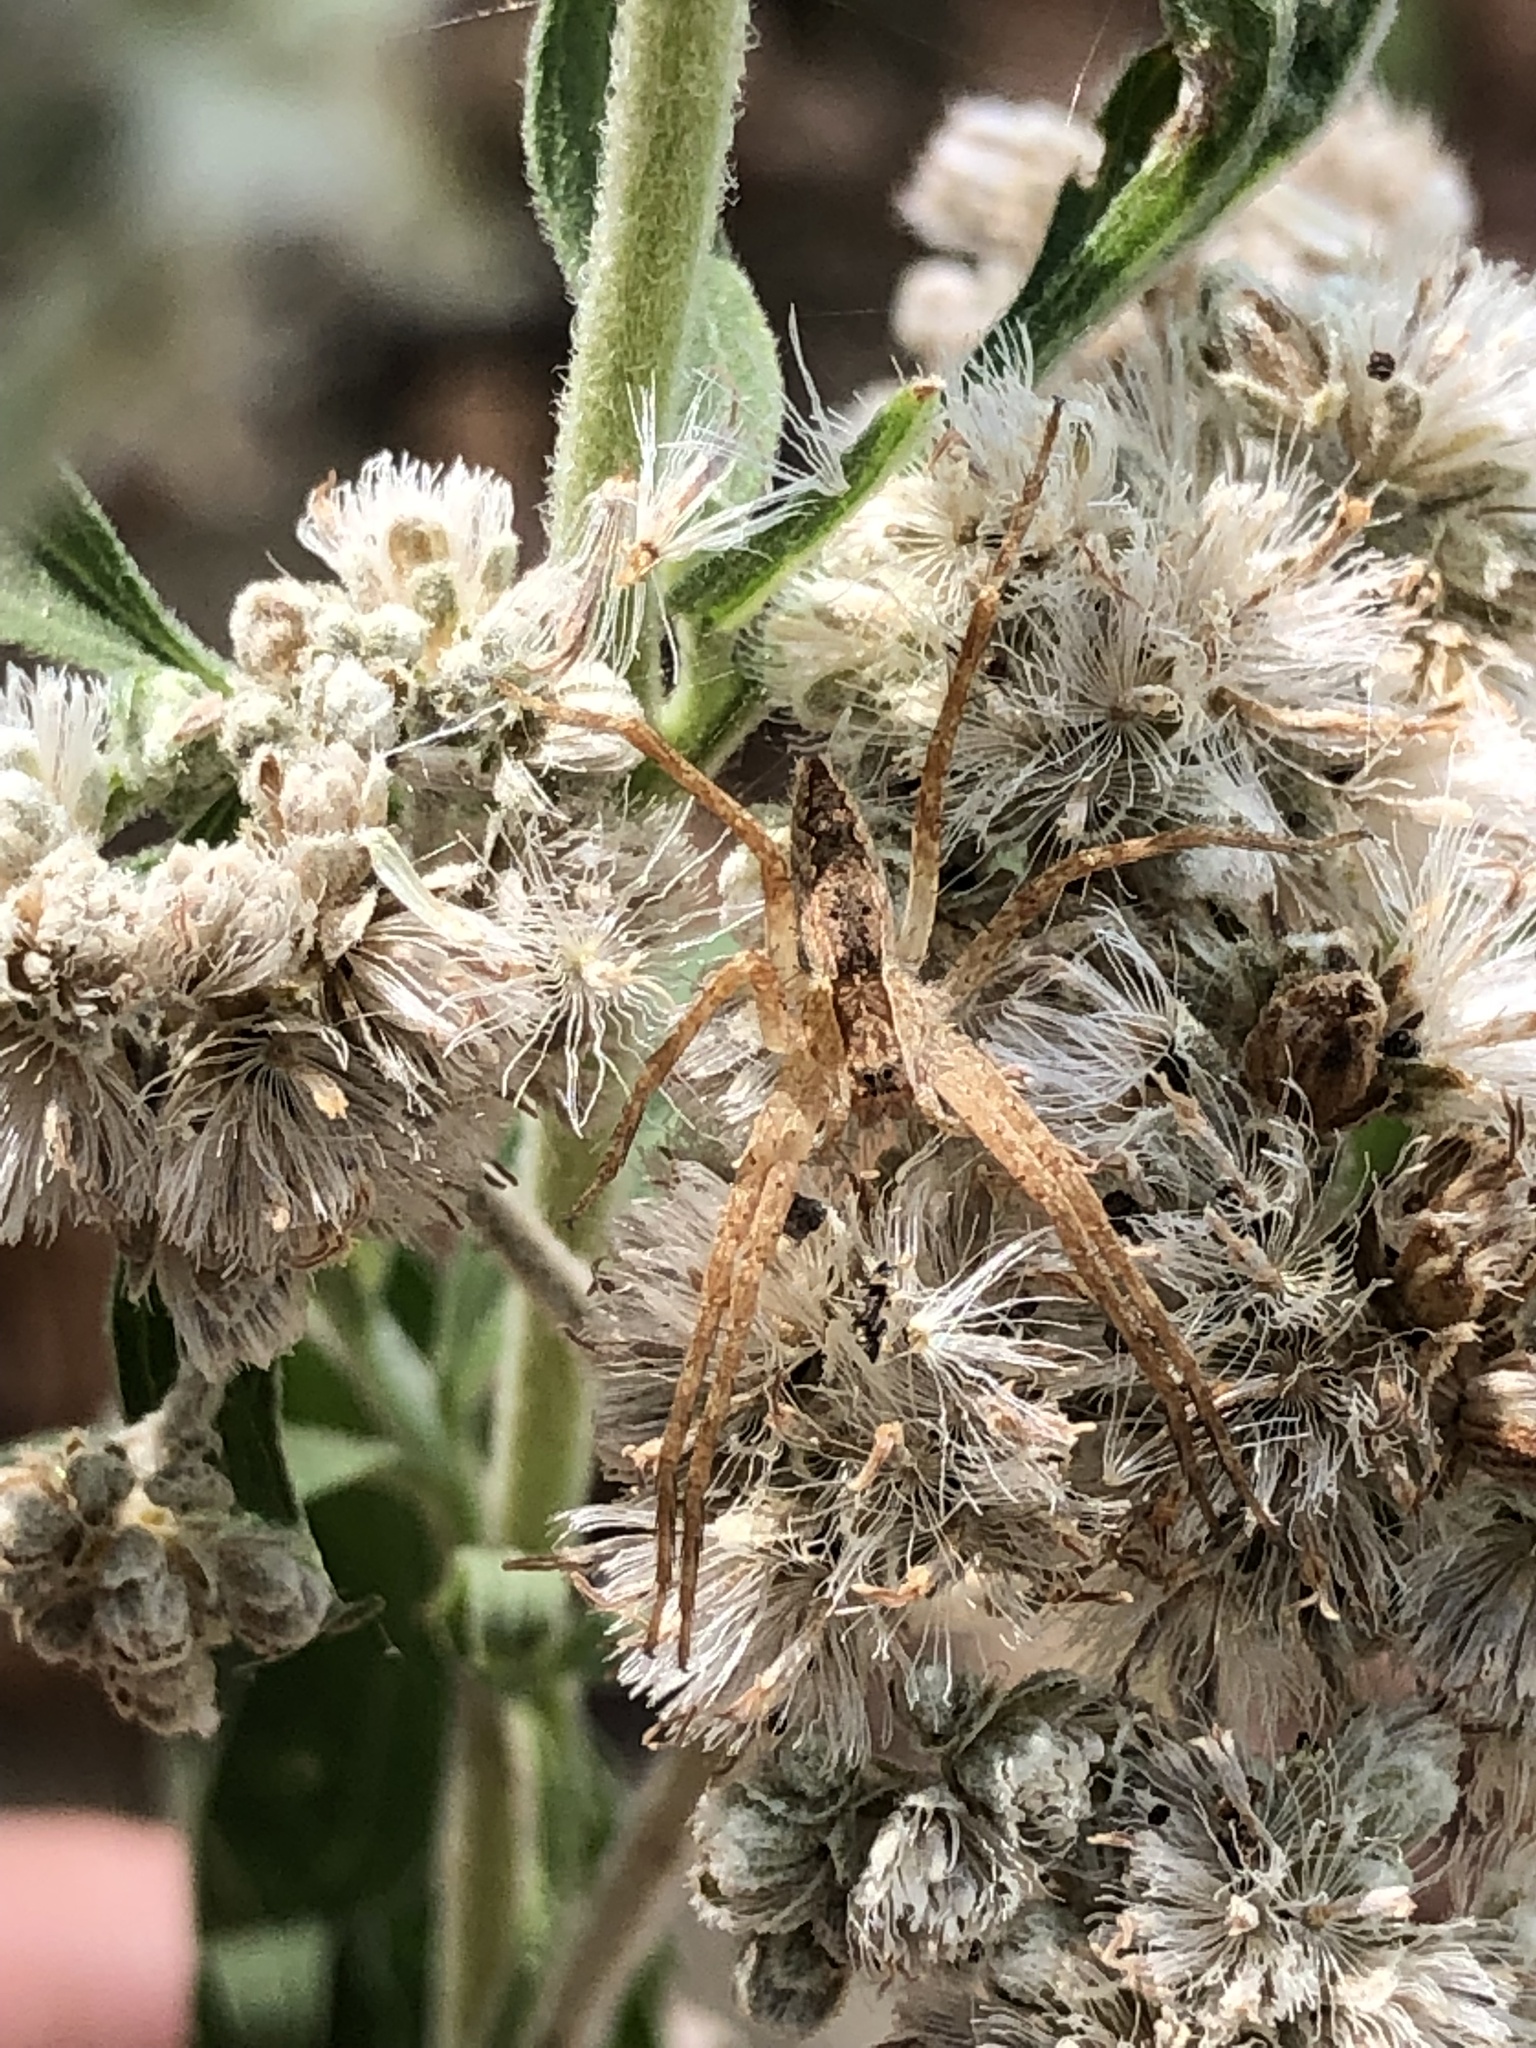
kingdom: Animalia
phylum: Arthropoda
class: Arachnida
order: Araneae
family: Pisauridae
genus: Pisaurina
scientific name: Pisaurina mira
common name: American nursery web spider
